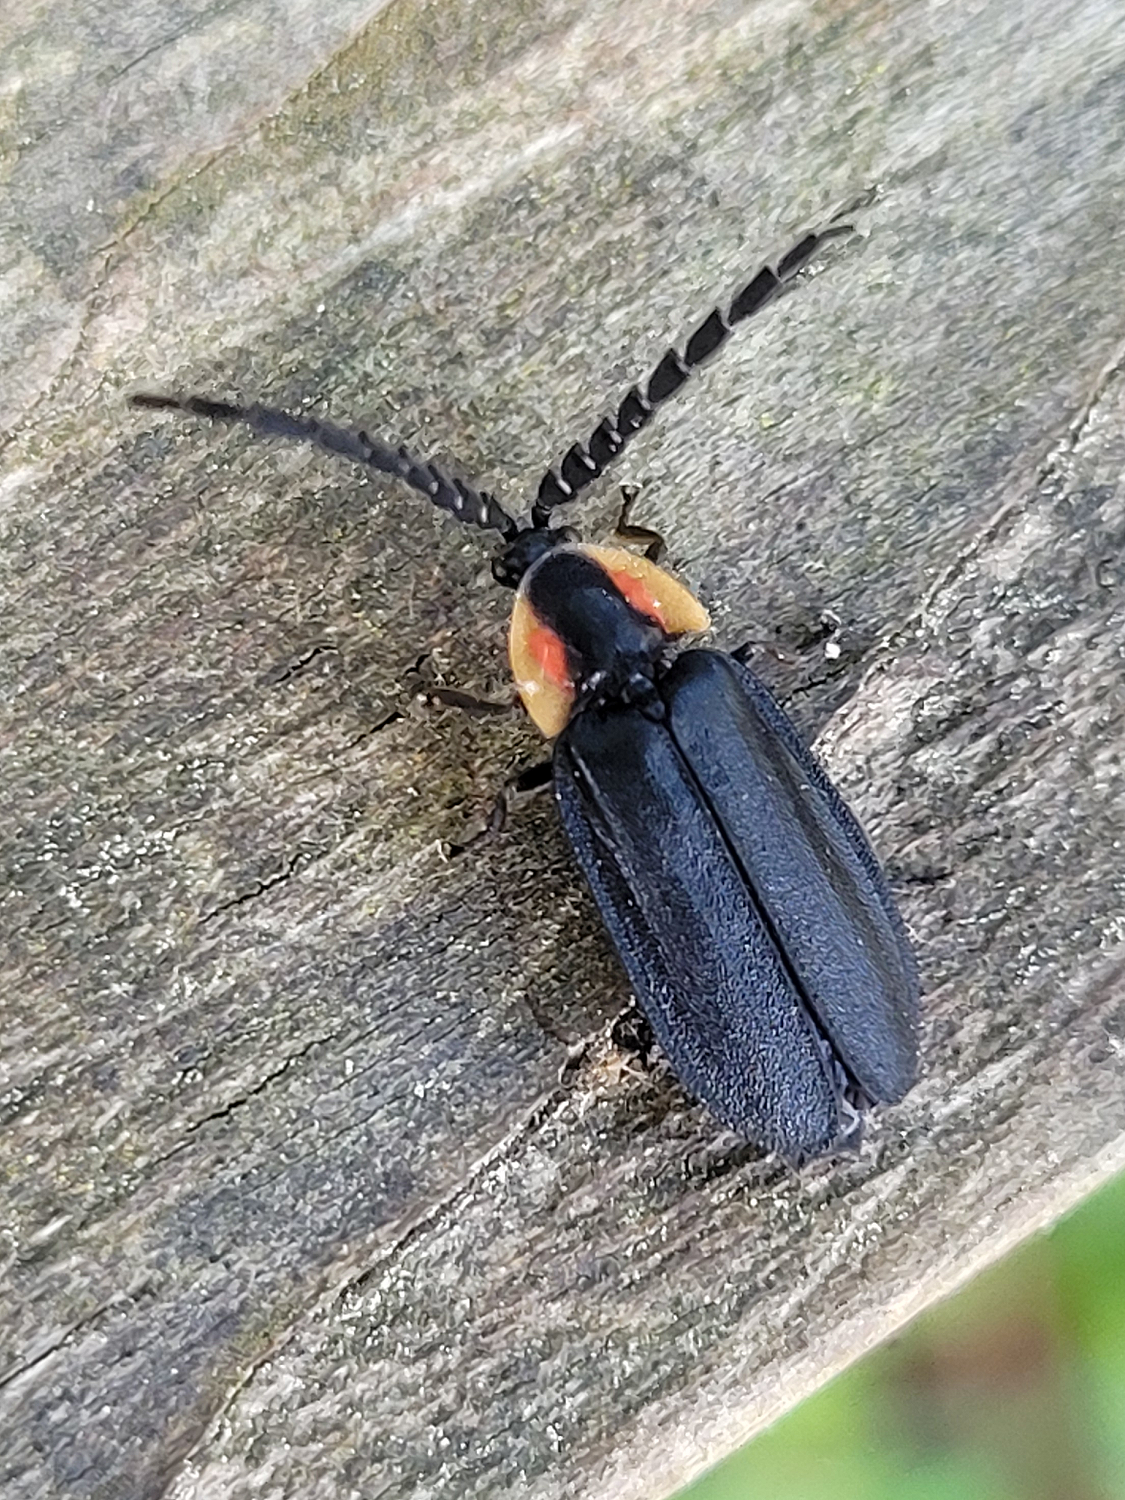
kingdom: Animalia
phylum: Arthropoda
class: Insecta
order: Coleoptera
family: Lampyridae
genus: Lucidota
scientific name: Lucidota atra
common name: Black firefly
